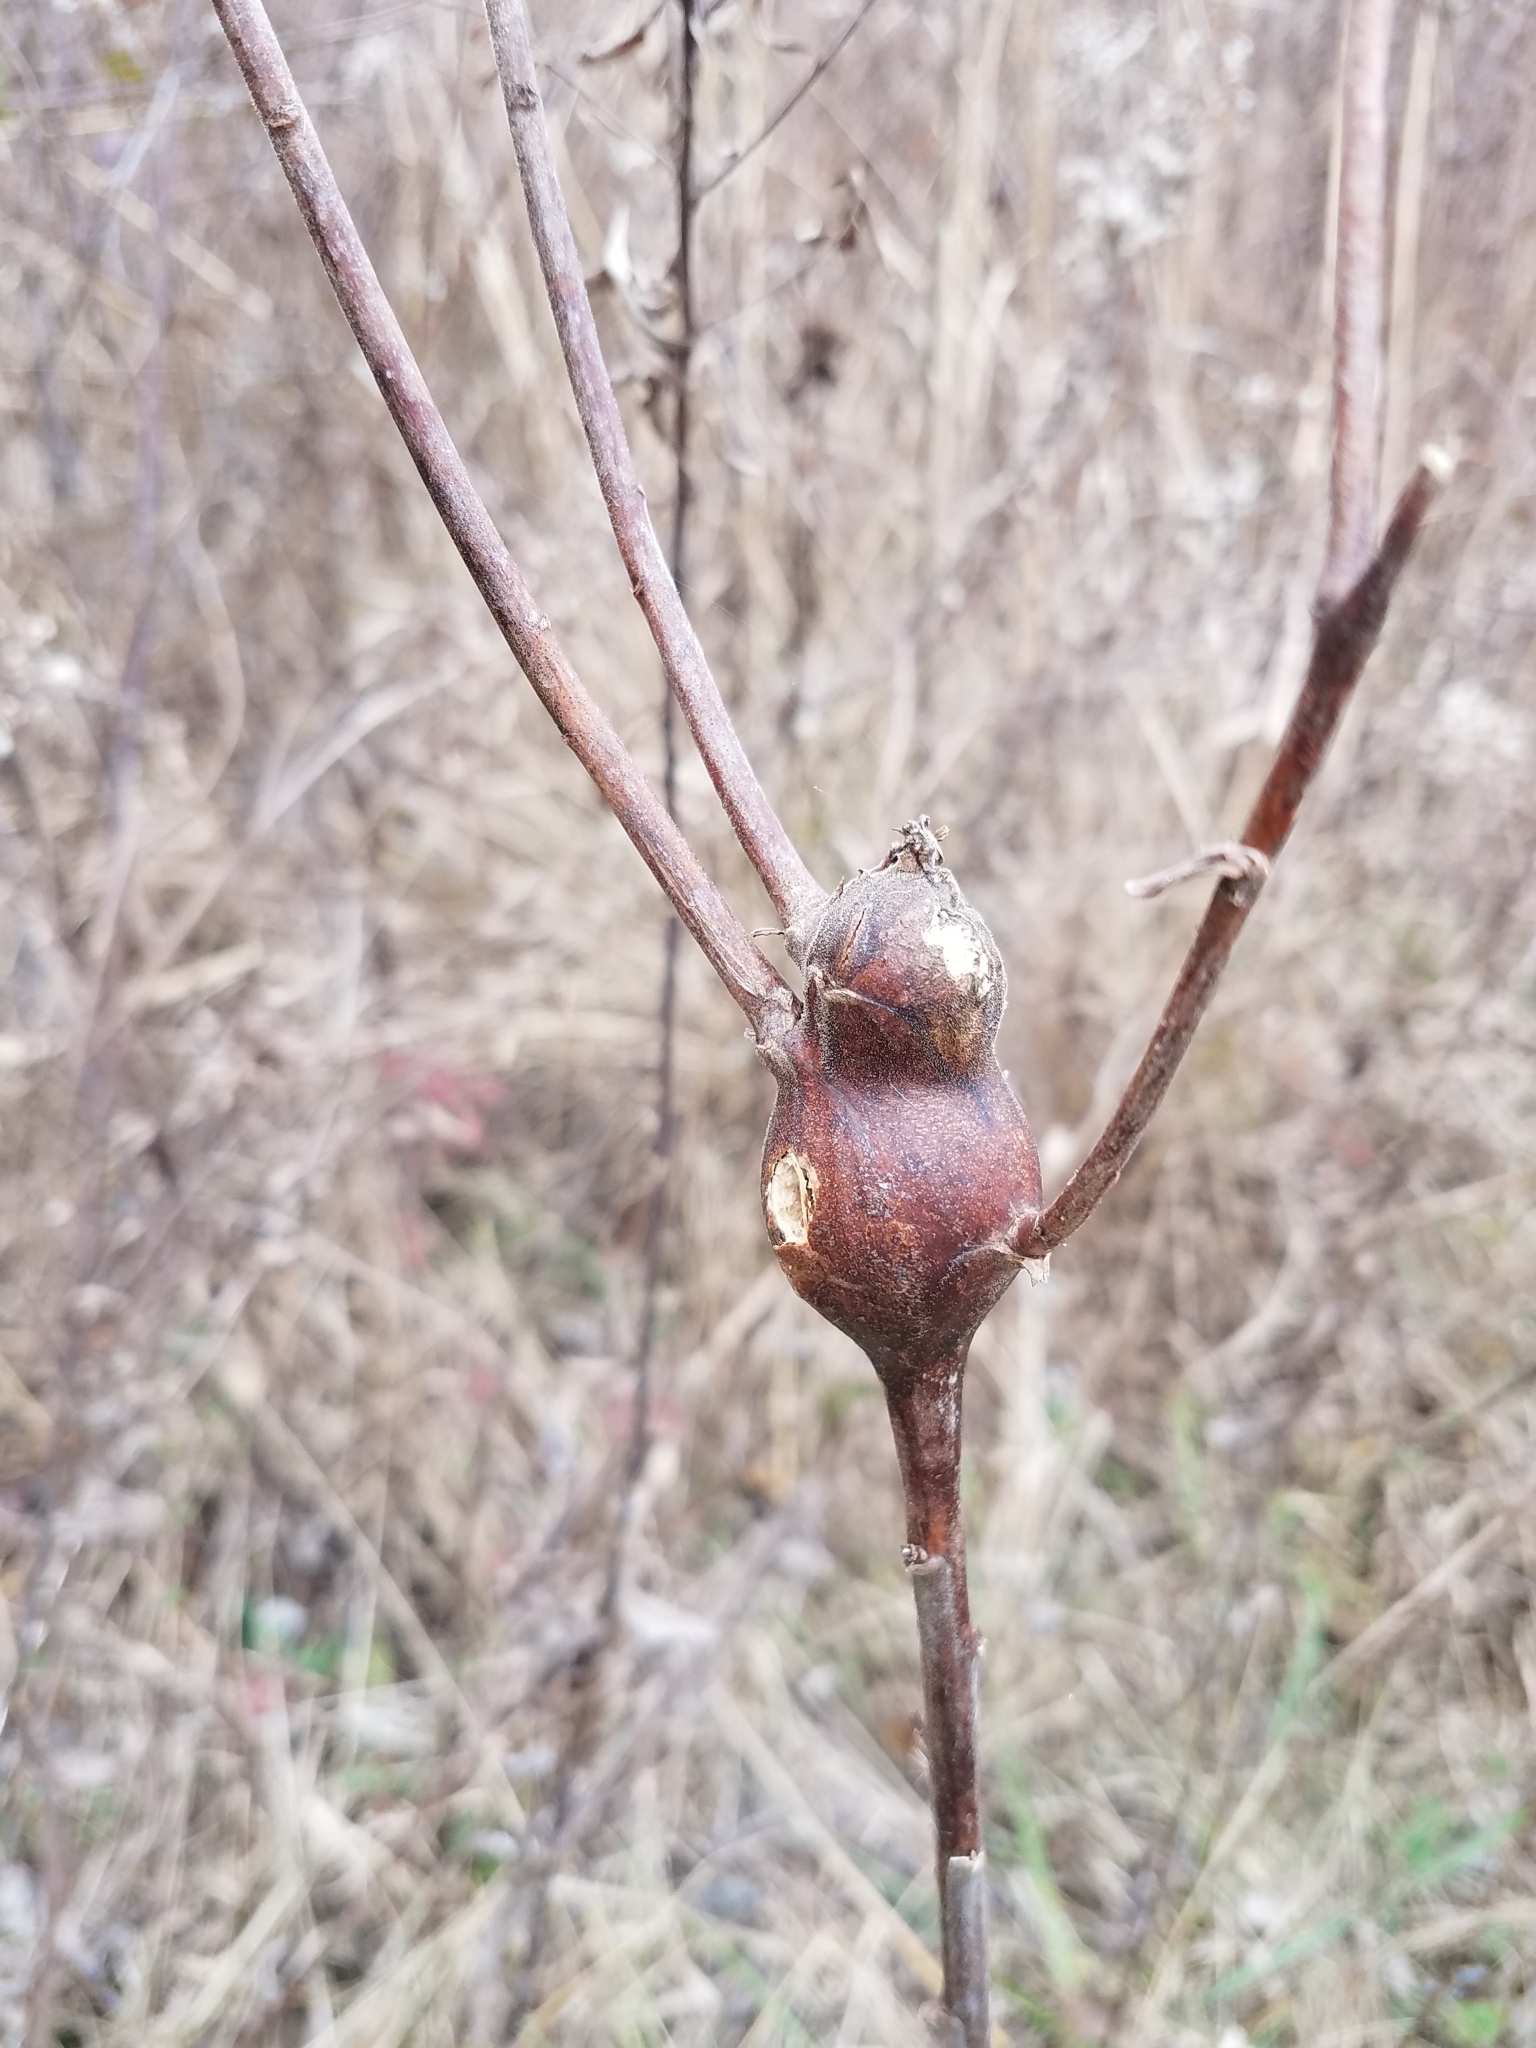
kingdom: Animalia
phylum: Arthropoda
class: Insecta
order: Diptera
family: Tephritidae
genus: Eurosta
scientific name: Eurosta solidaginis
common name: Goldenrod gall fly
